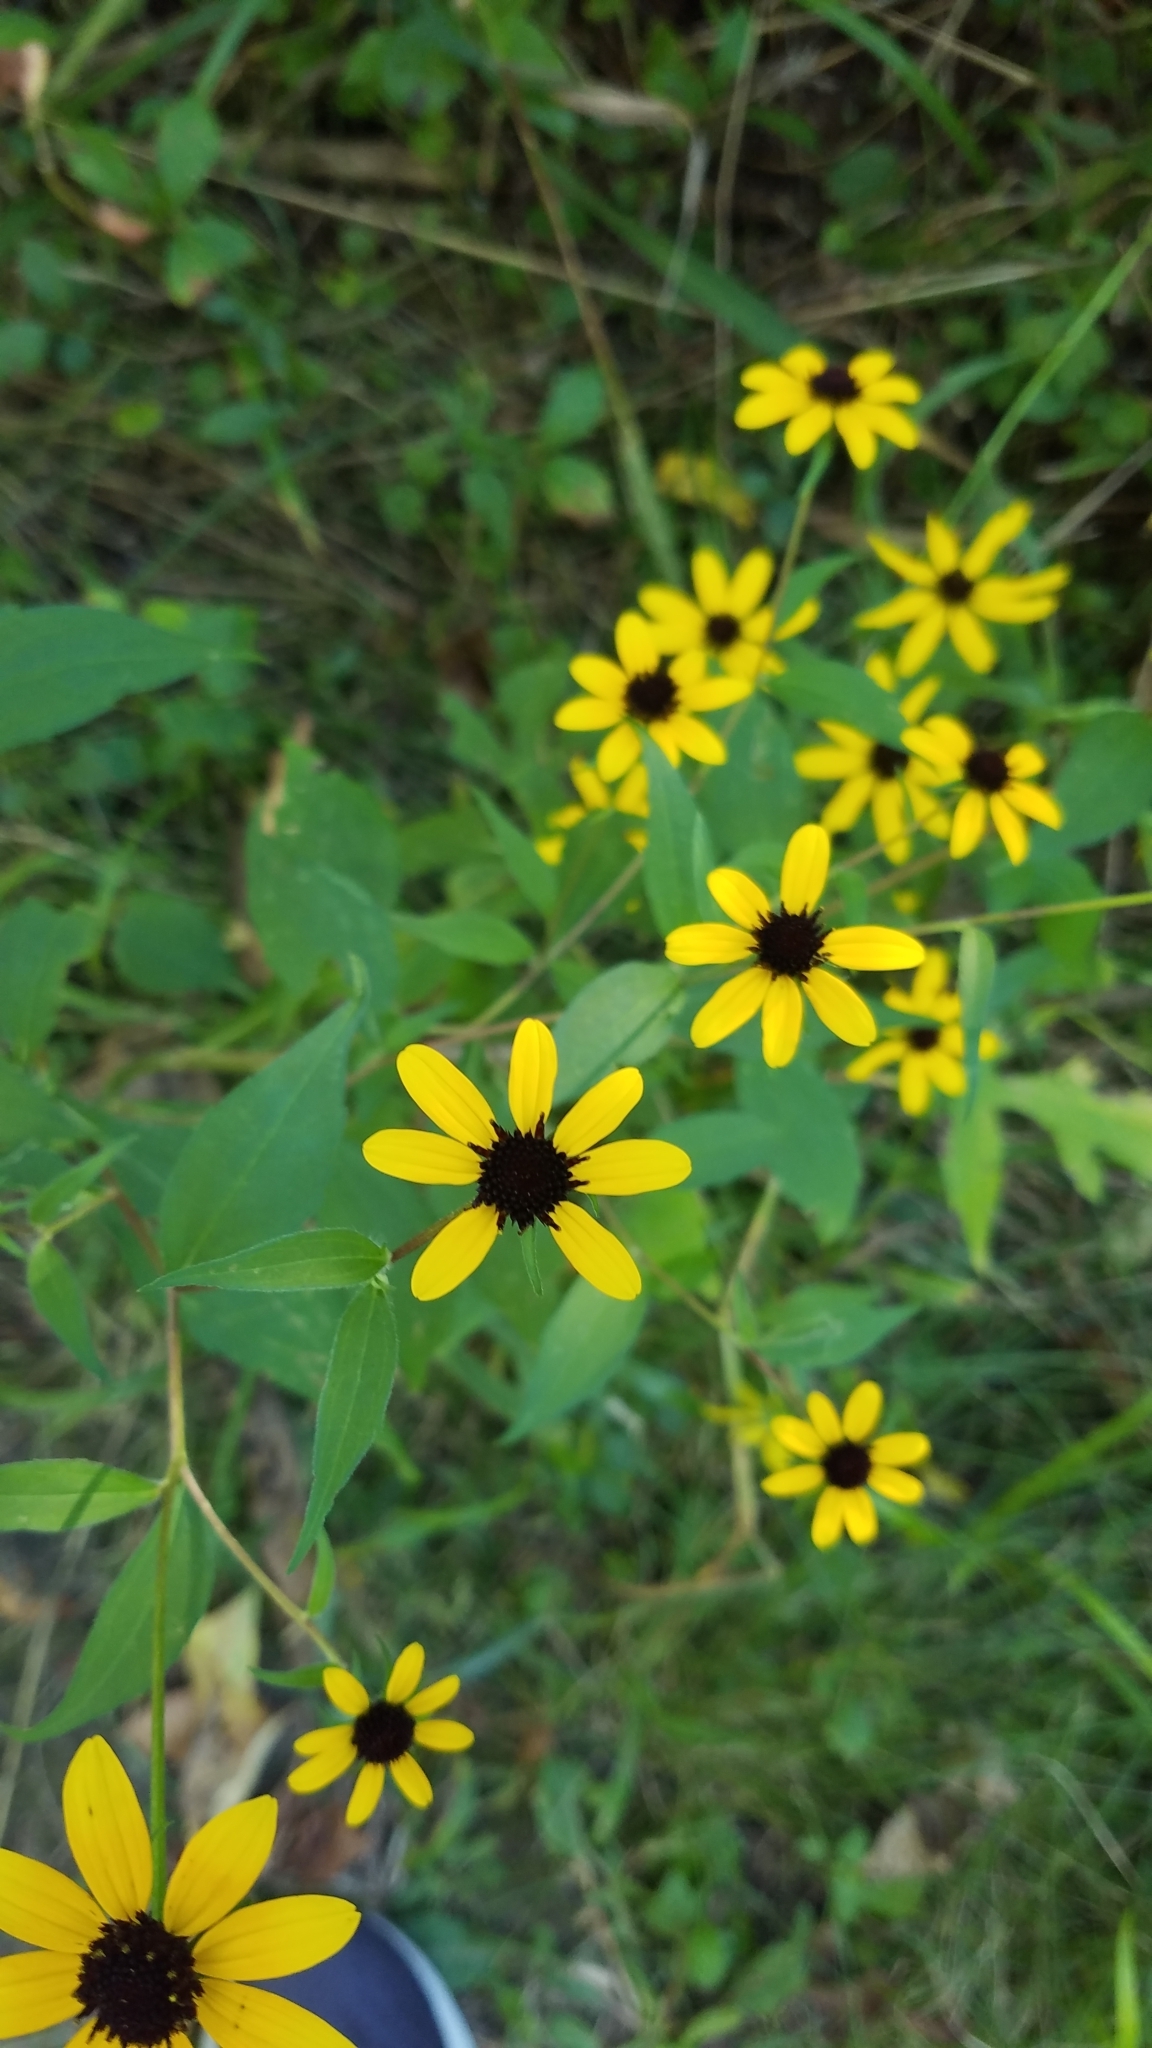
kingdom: Plantae
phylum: Tracheophyta
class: Magnoliopsida
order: Asterales
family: Asteraceae
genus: Rudbeckia
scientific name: Rudbeckia triloba
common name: Thin-leaved coneflower
